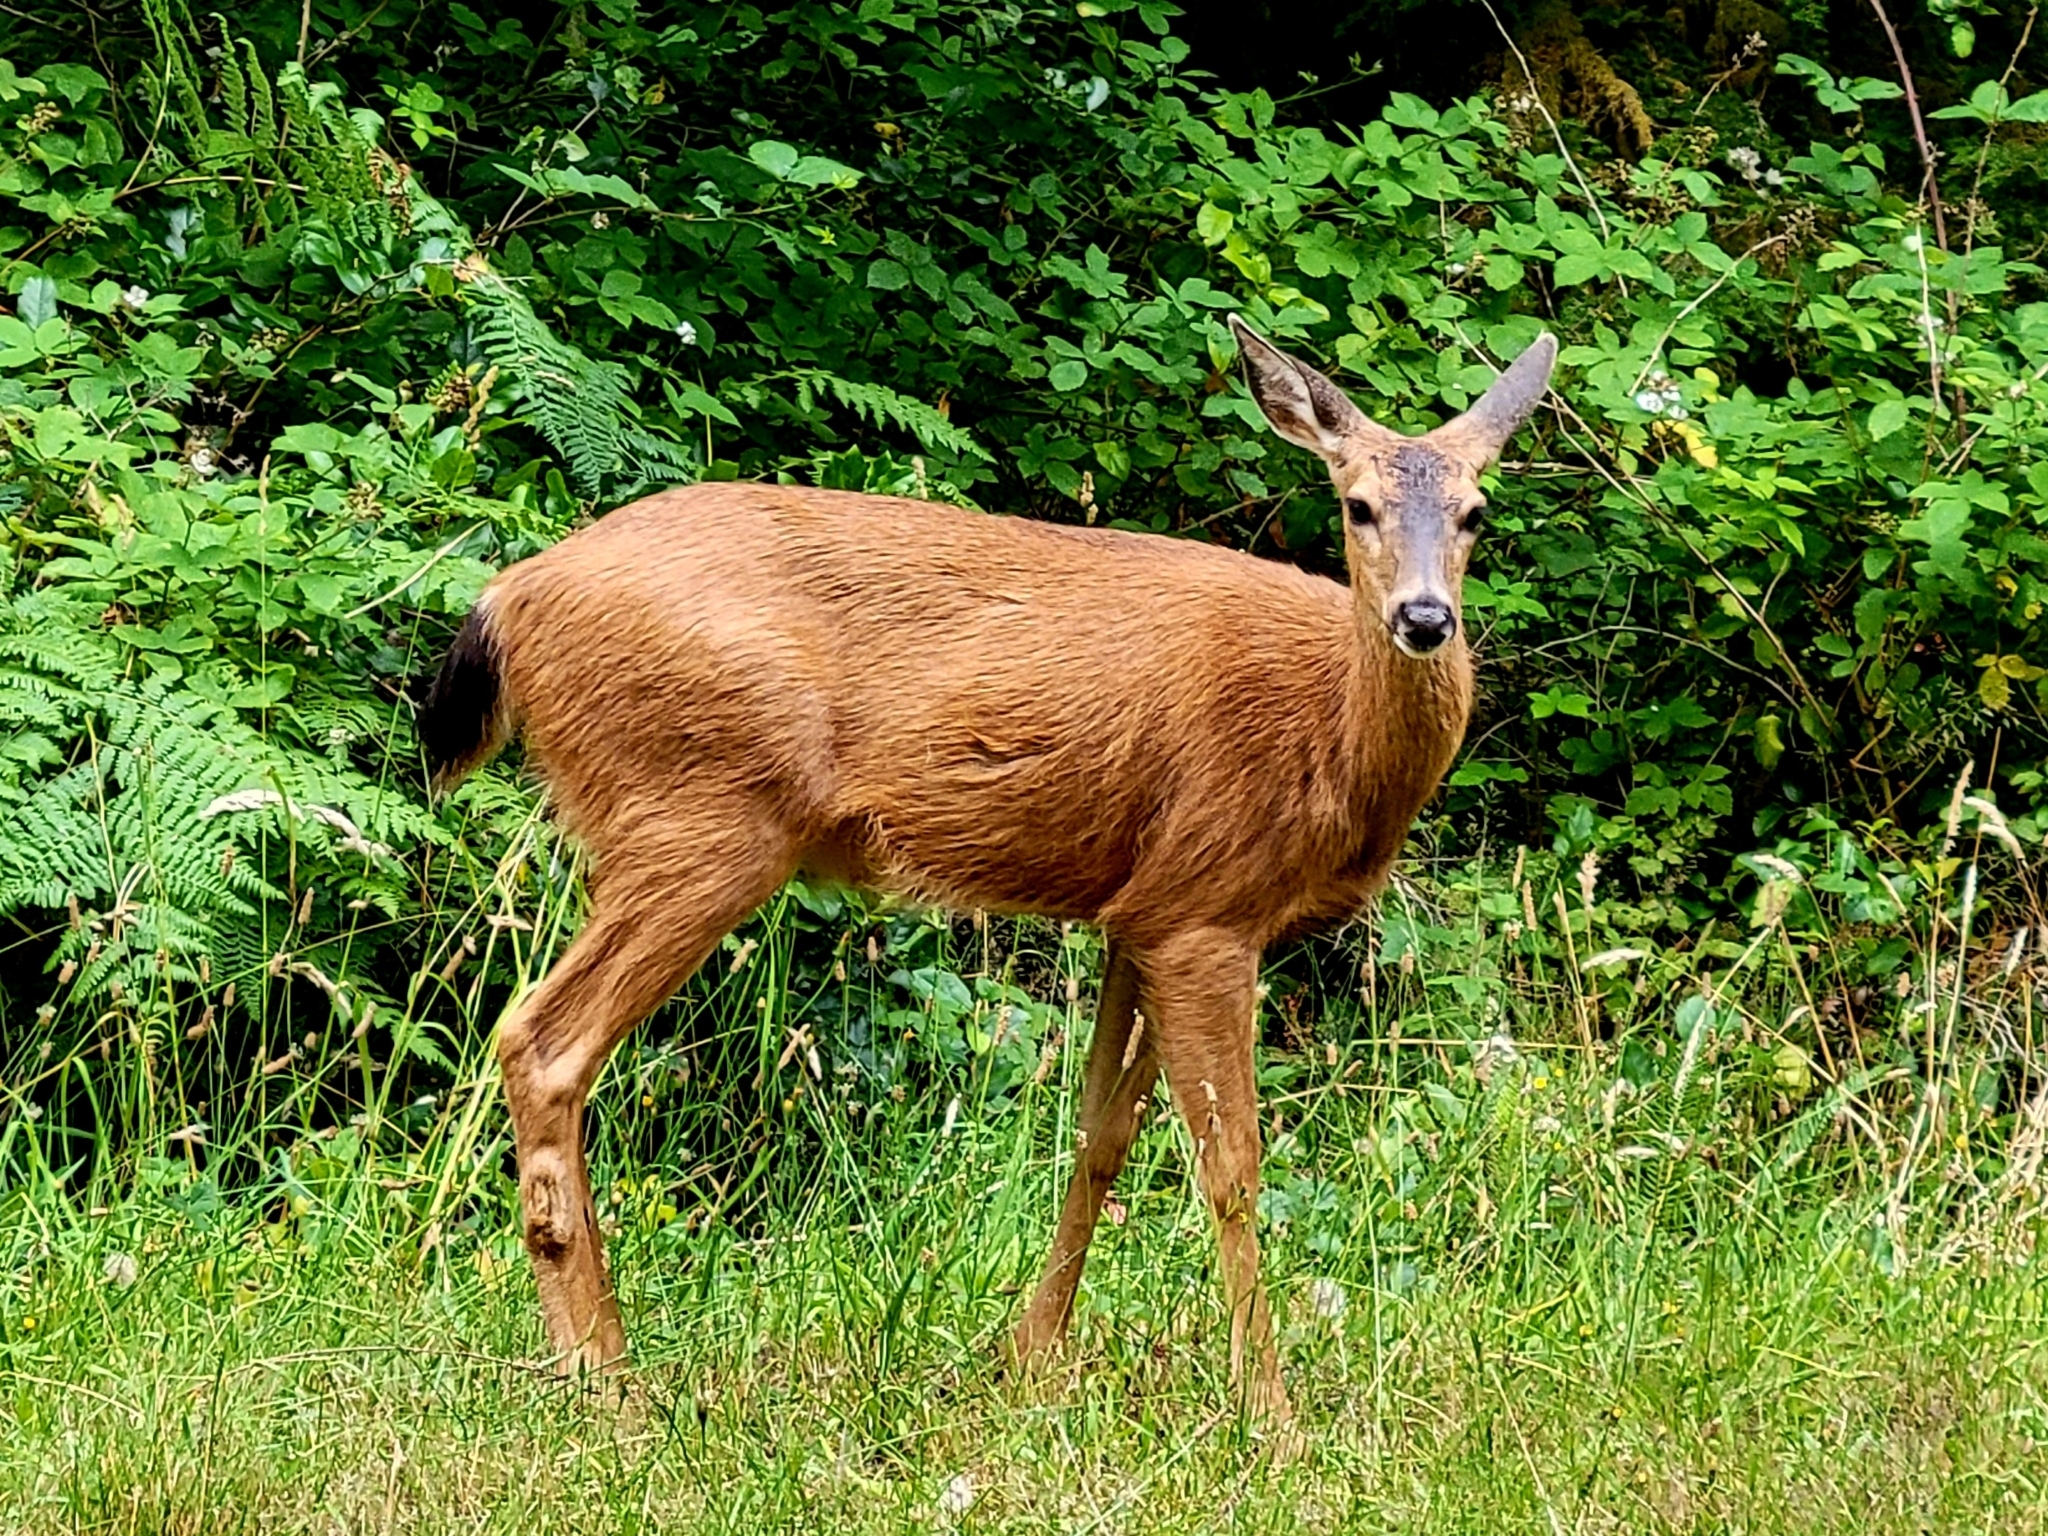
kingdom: Animalia
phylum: Chordata
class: Mammalia
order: Artiodactyla
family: Cervidae
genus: Odocoileus
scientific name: Odocoileus hemionus
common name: Mule deer
